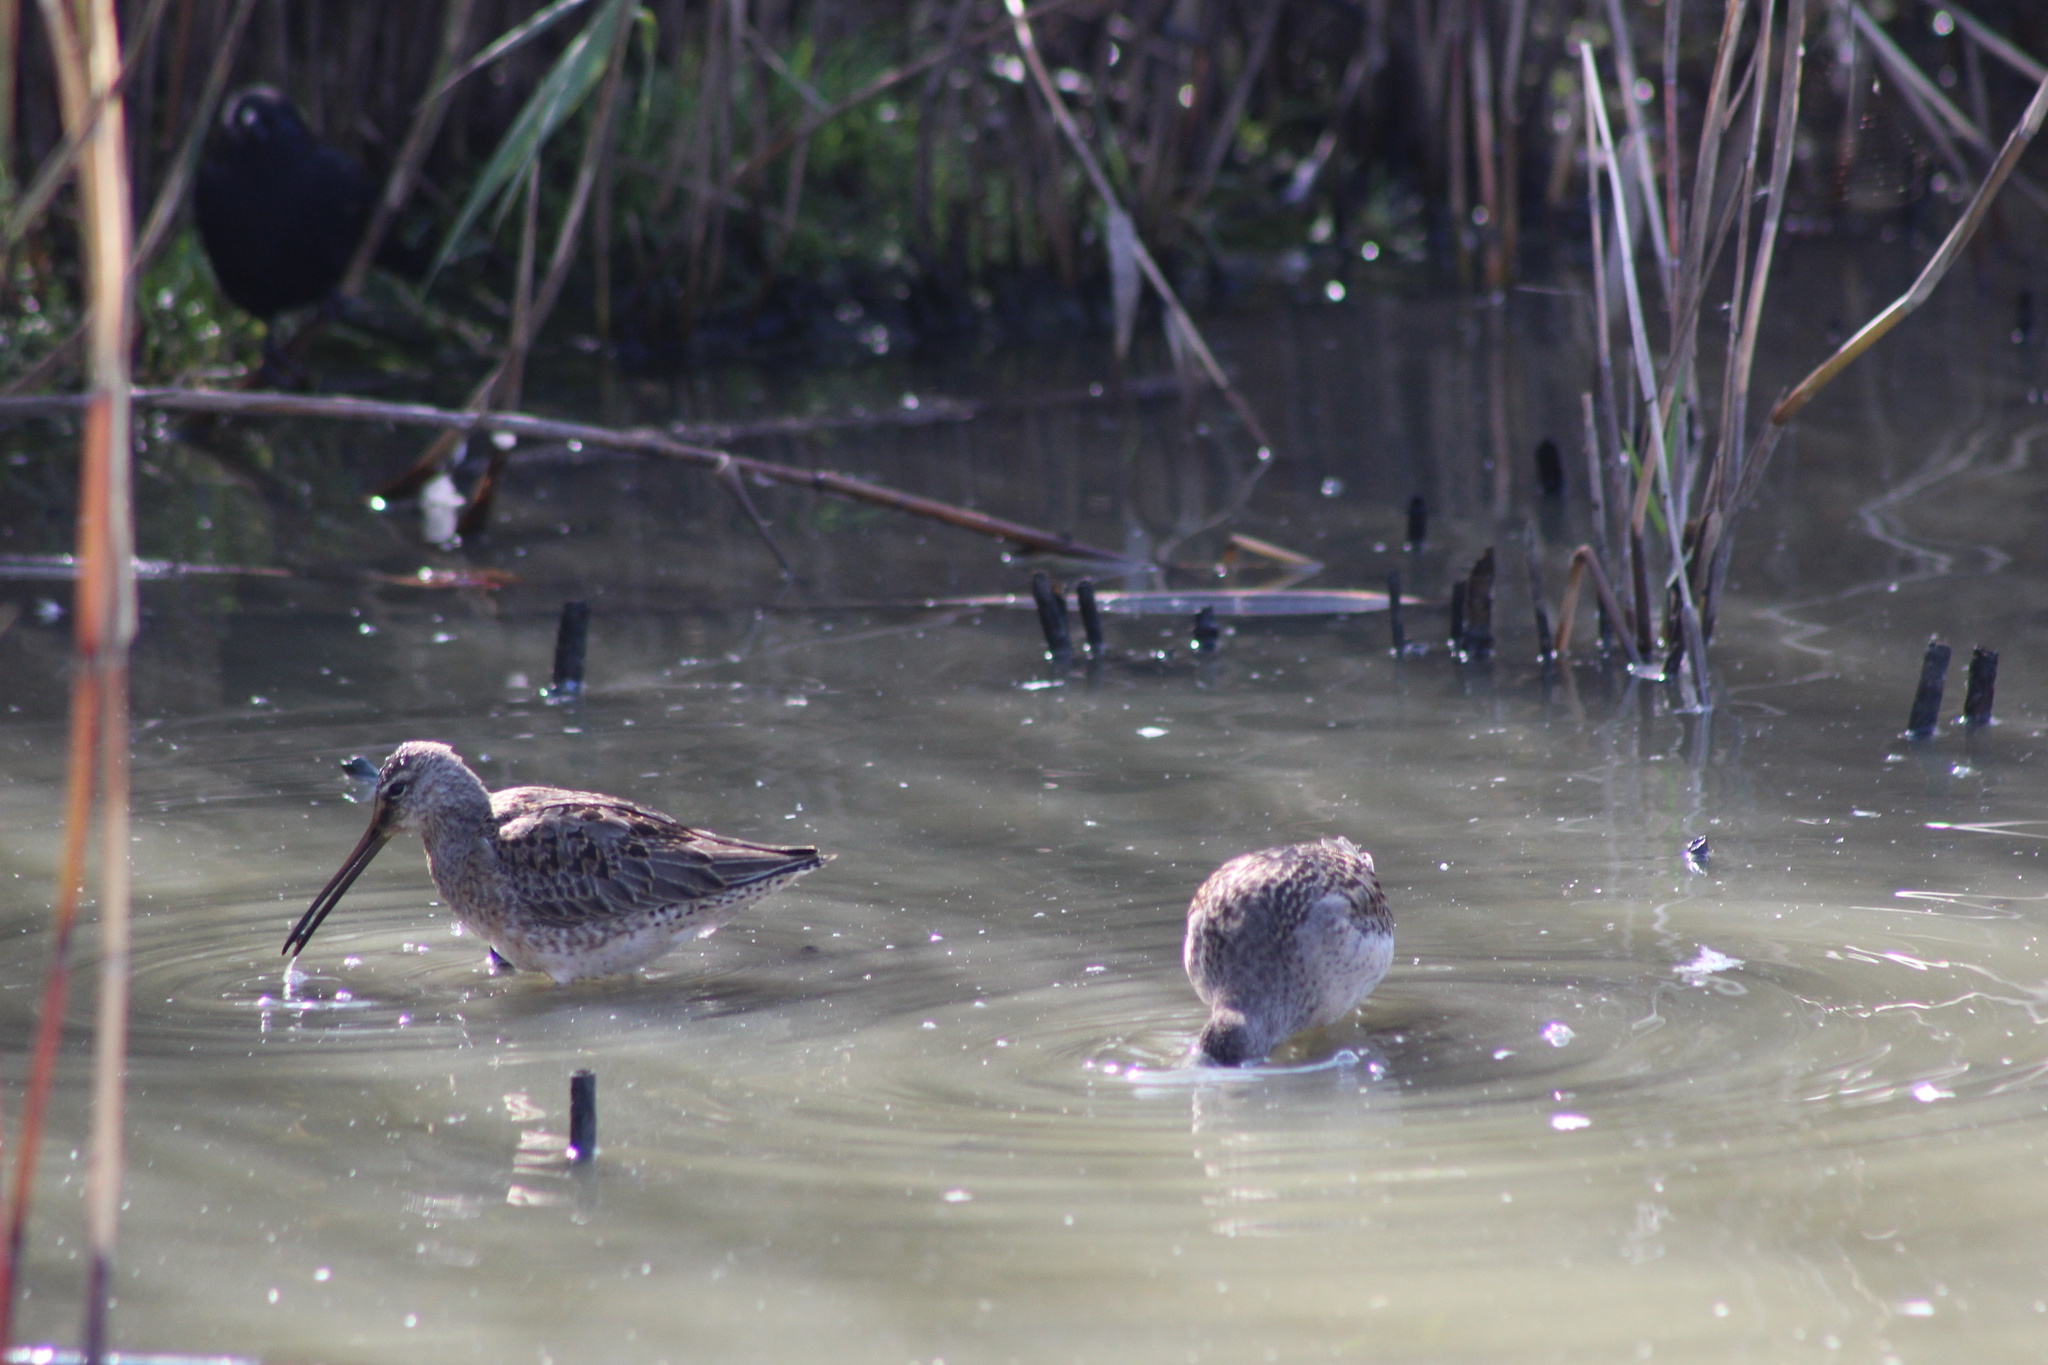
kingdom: Animalia
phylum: Chordata
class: Aves
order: Charadriiformes
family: Scolopacidae
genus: Limnodromus
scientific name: Limnodromus scolopaceus
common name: Long-billed dowitcher
